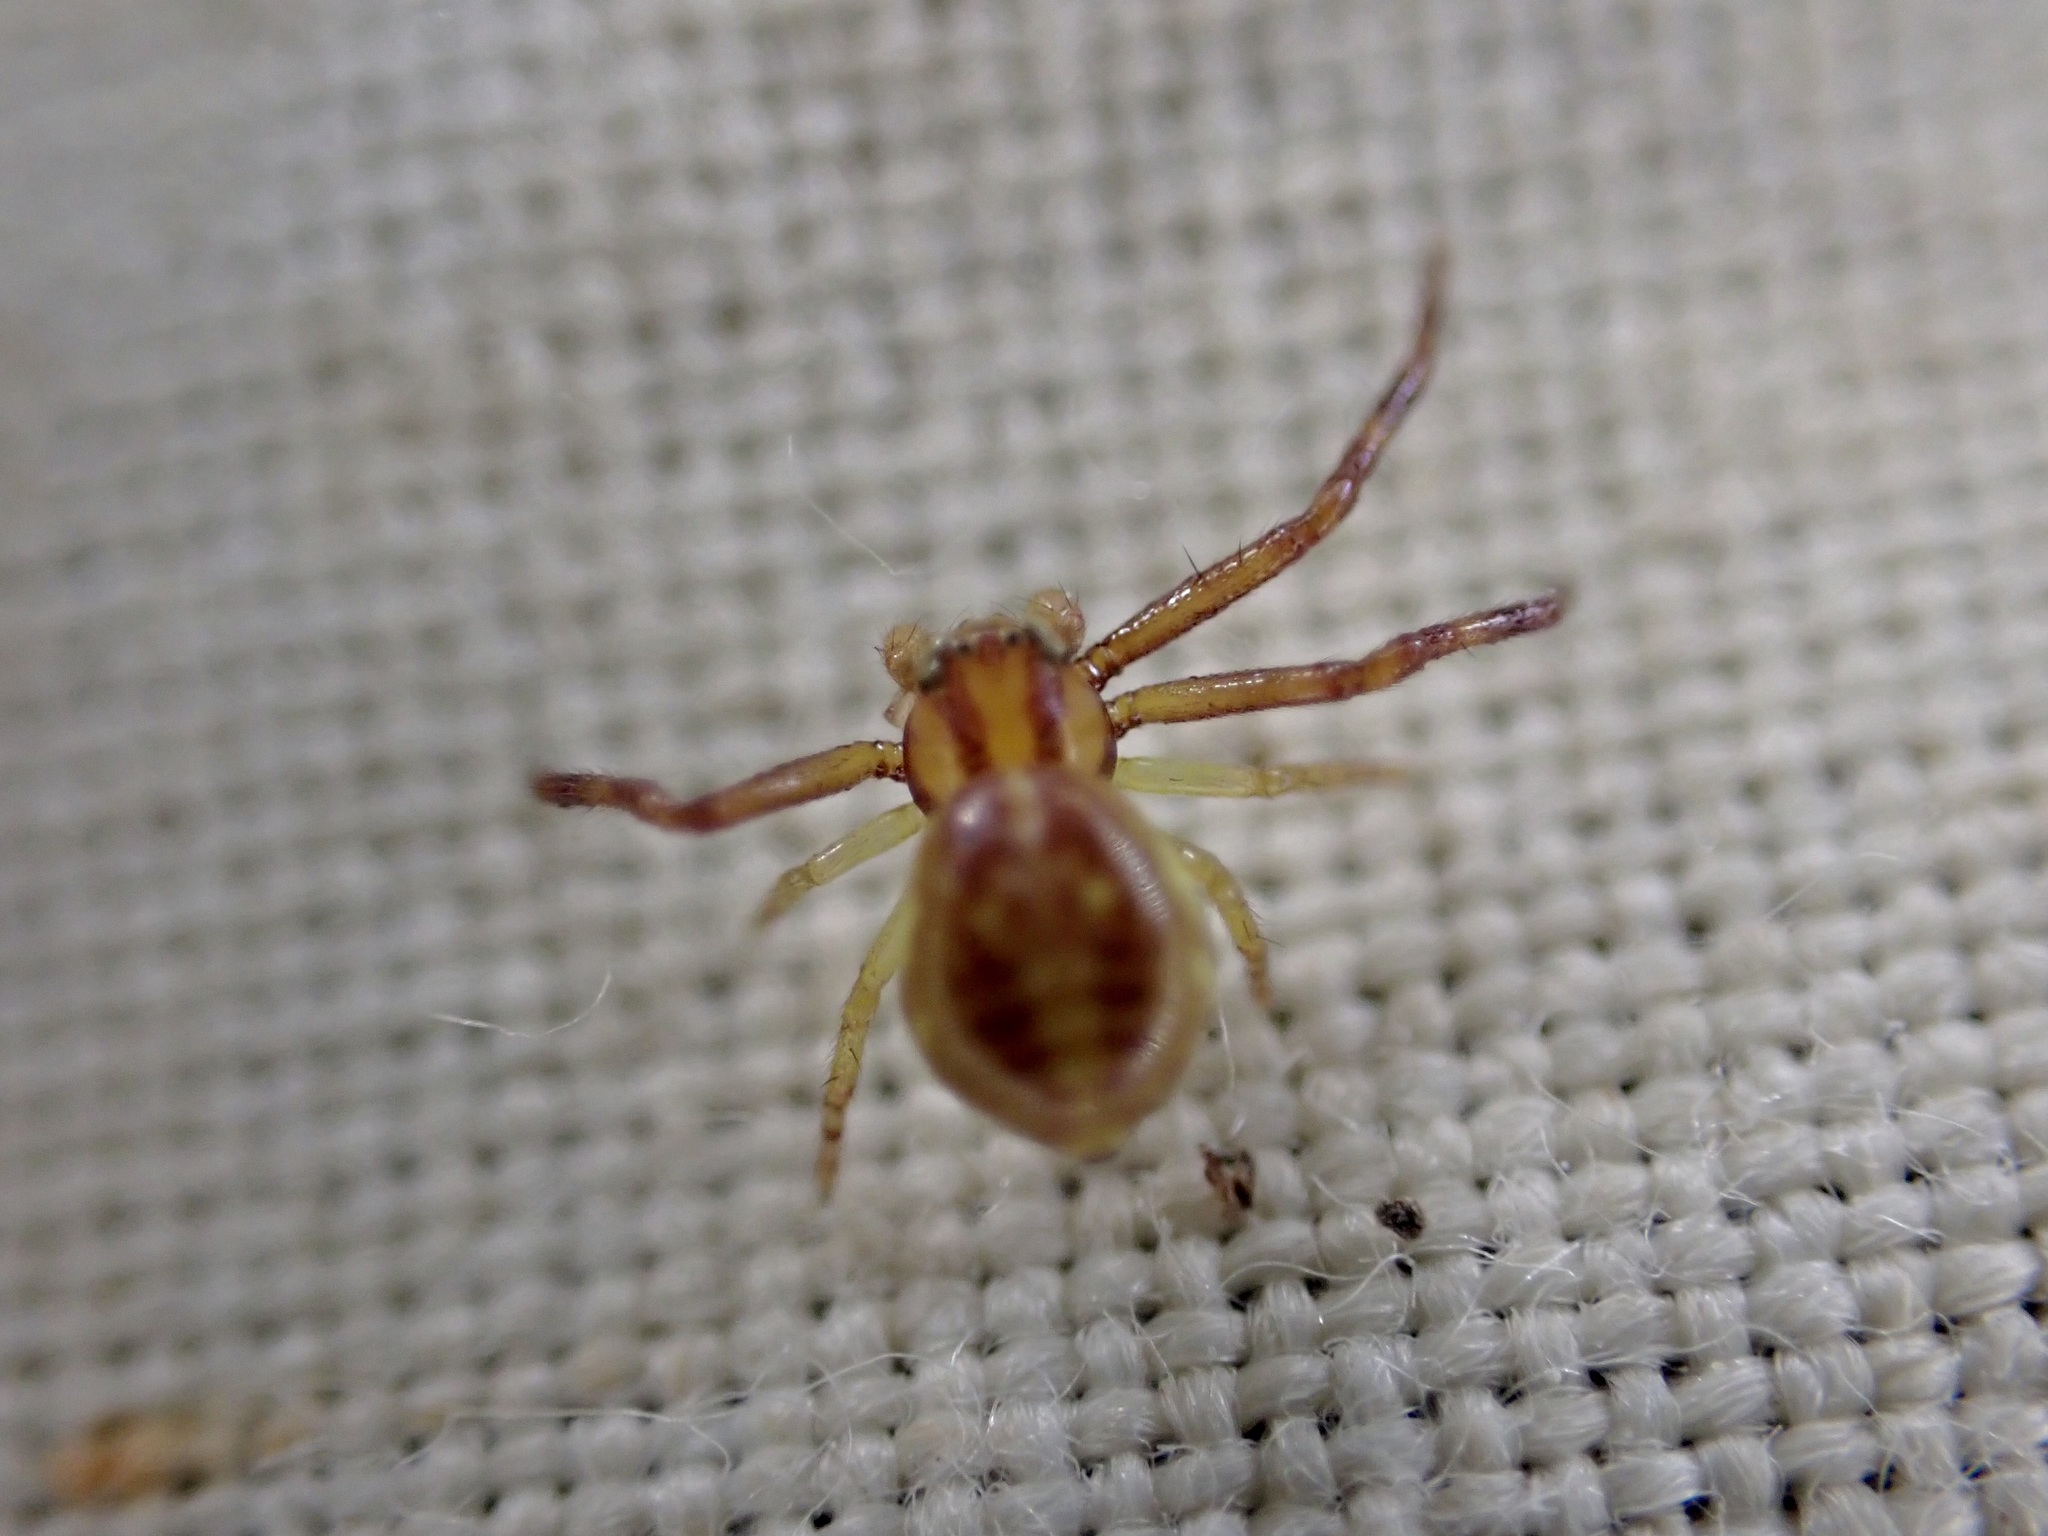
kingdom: Animalia
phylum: Arthropoda
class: Arachnida
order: Araneae
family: Thomisidae
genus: Diaea
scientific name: Diaea ambara
